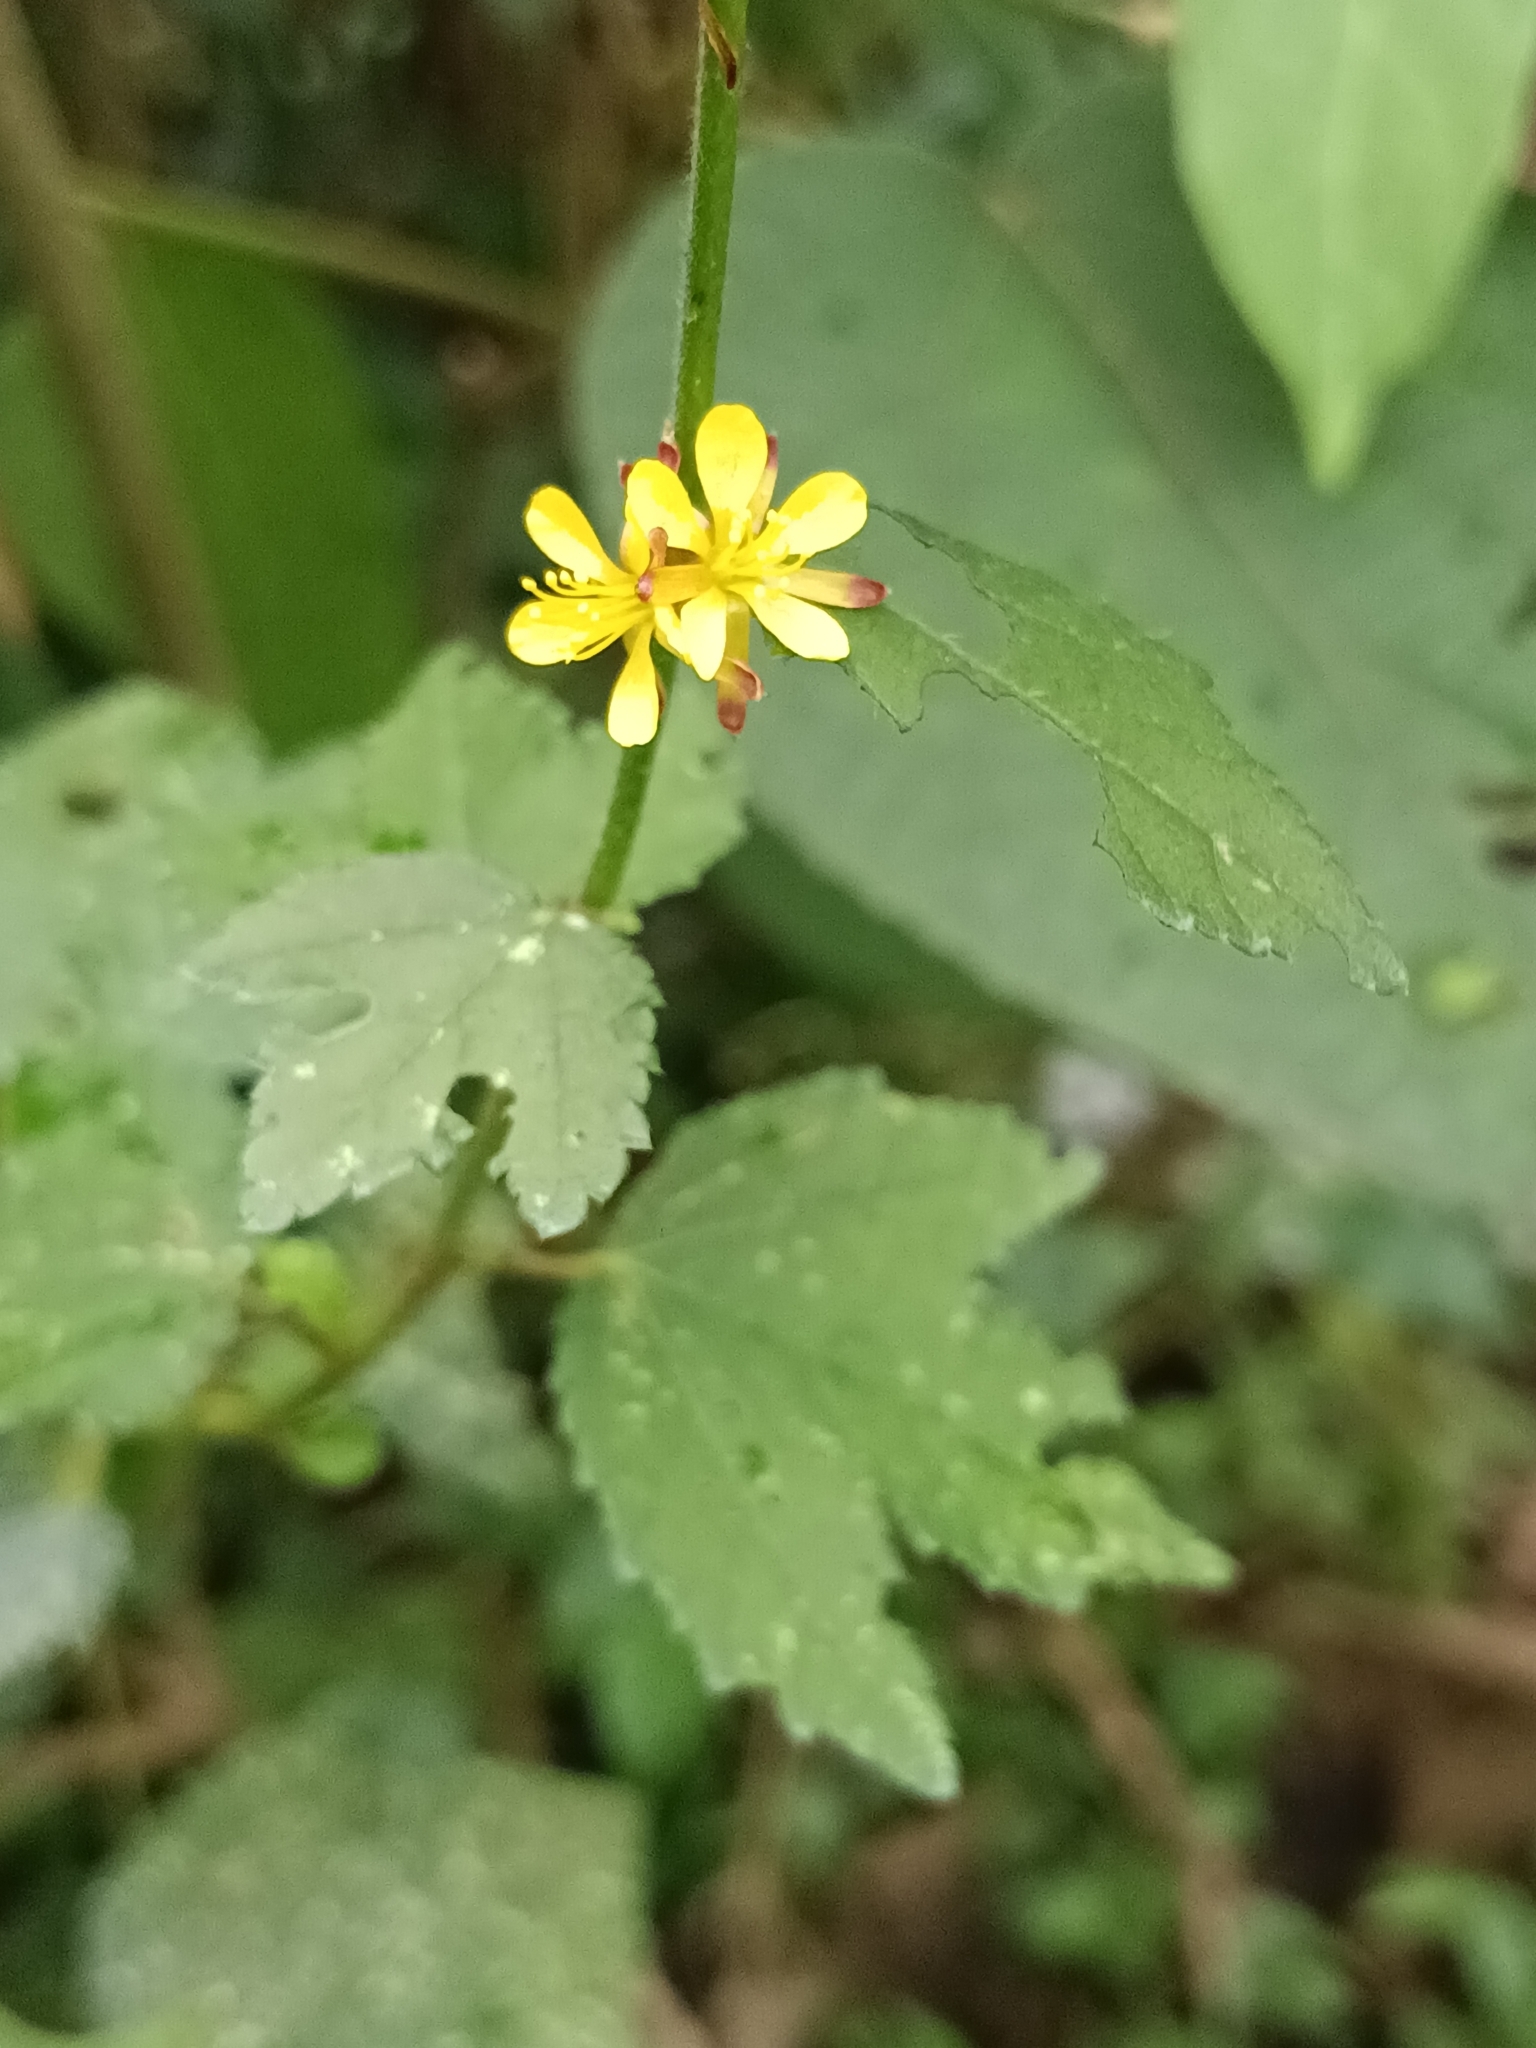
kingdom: Plantae
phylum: Tracheophyta
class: Magnoliopsida
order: Malvales
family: Malvaceae
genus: Triumfetta
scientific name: Triumfetta rhomboidea
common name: Diamond burbark
